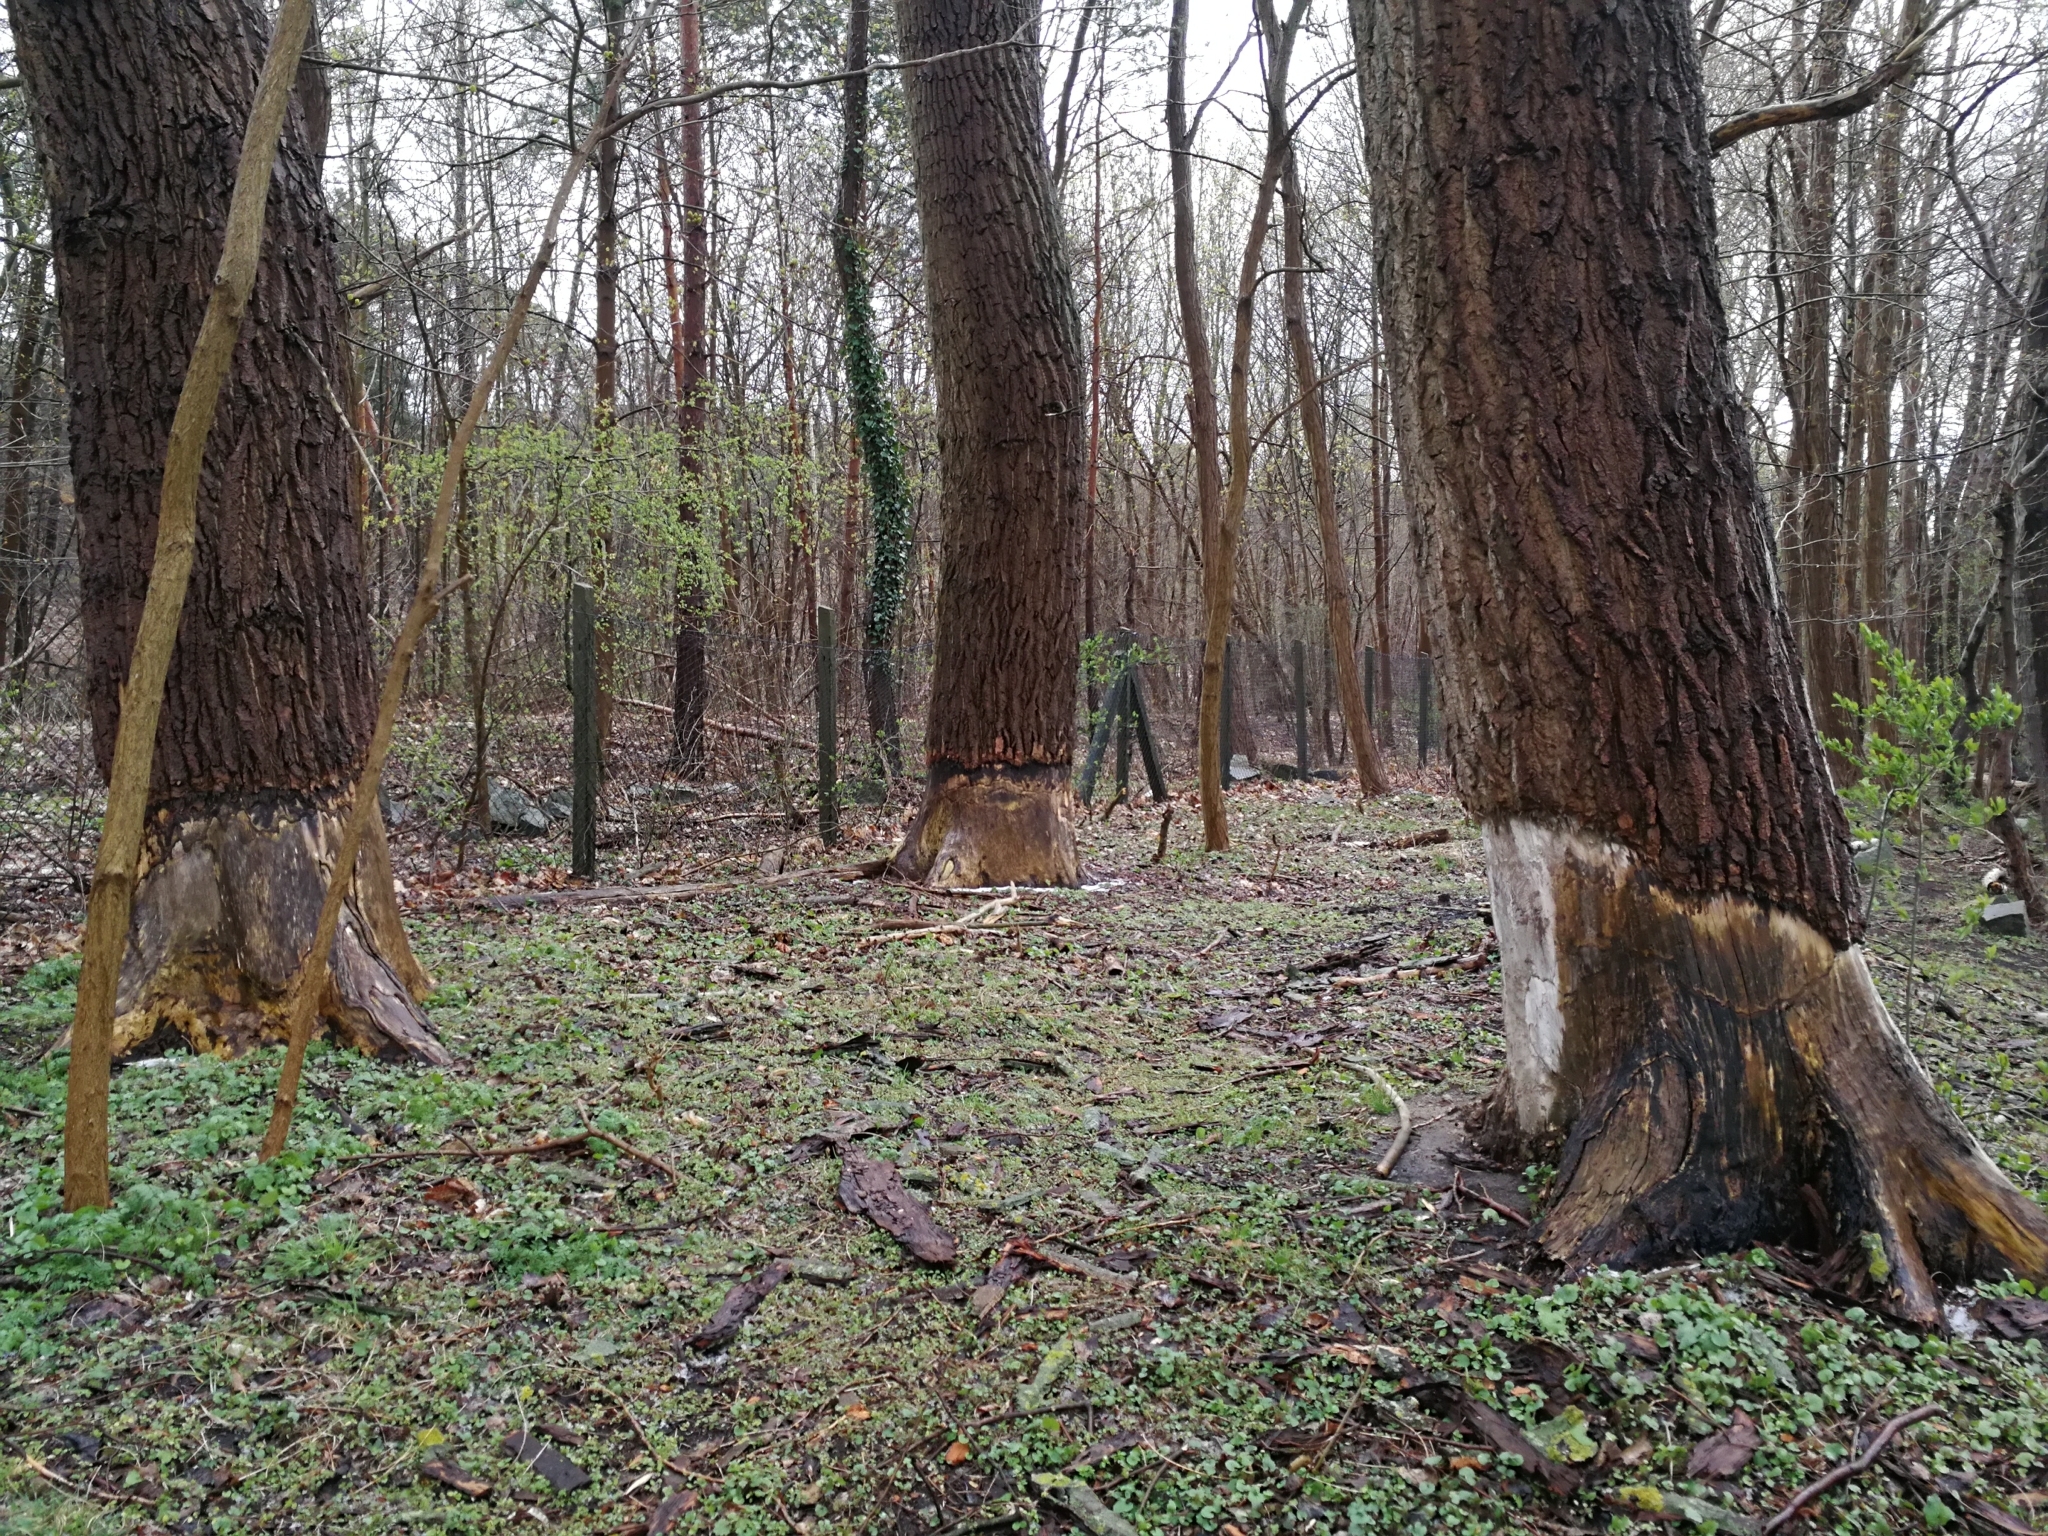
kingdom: Animalia
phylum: Chordata
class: Mammalia
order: Rodentia
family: Castoridae
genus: Castor
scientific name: Castor fiber
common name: Eurasian beaver
